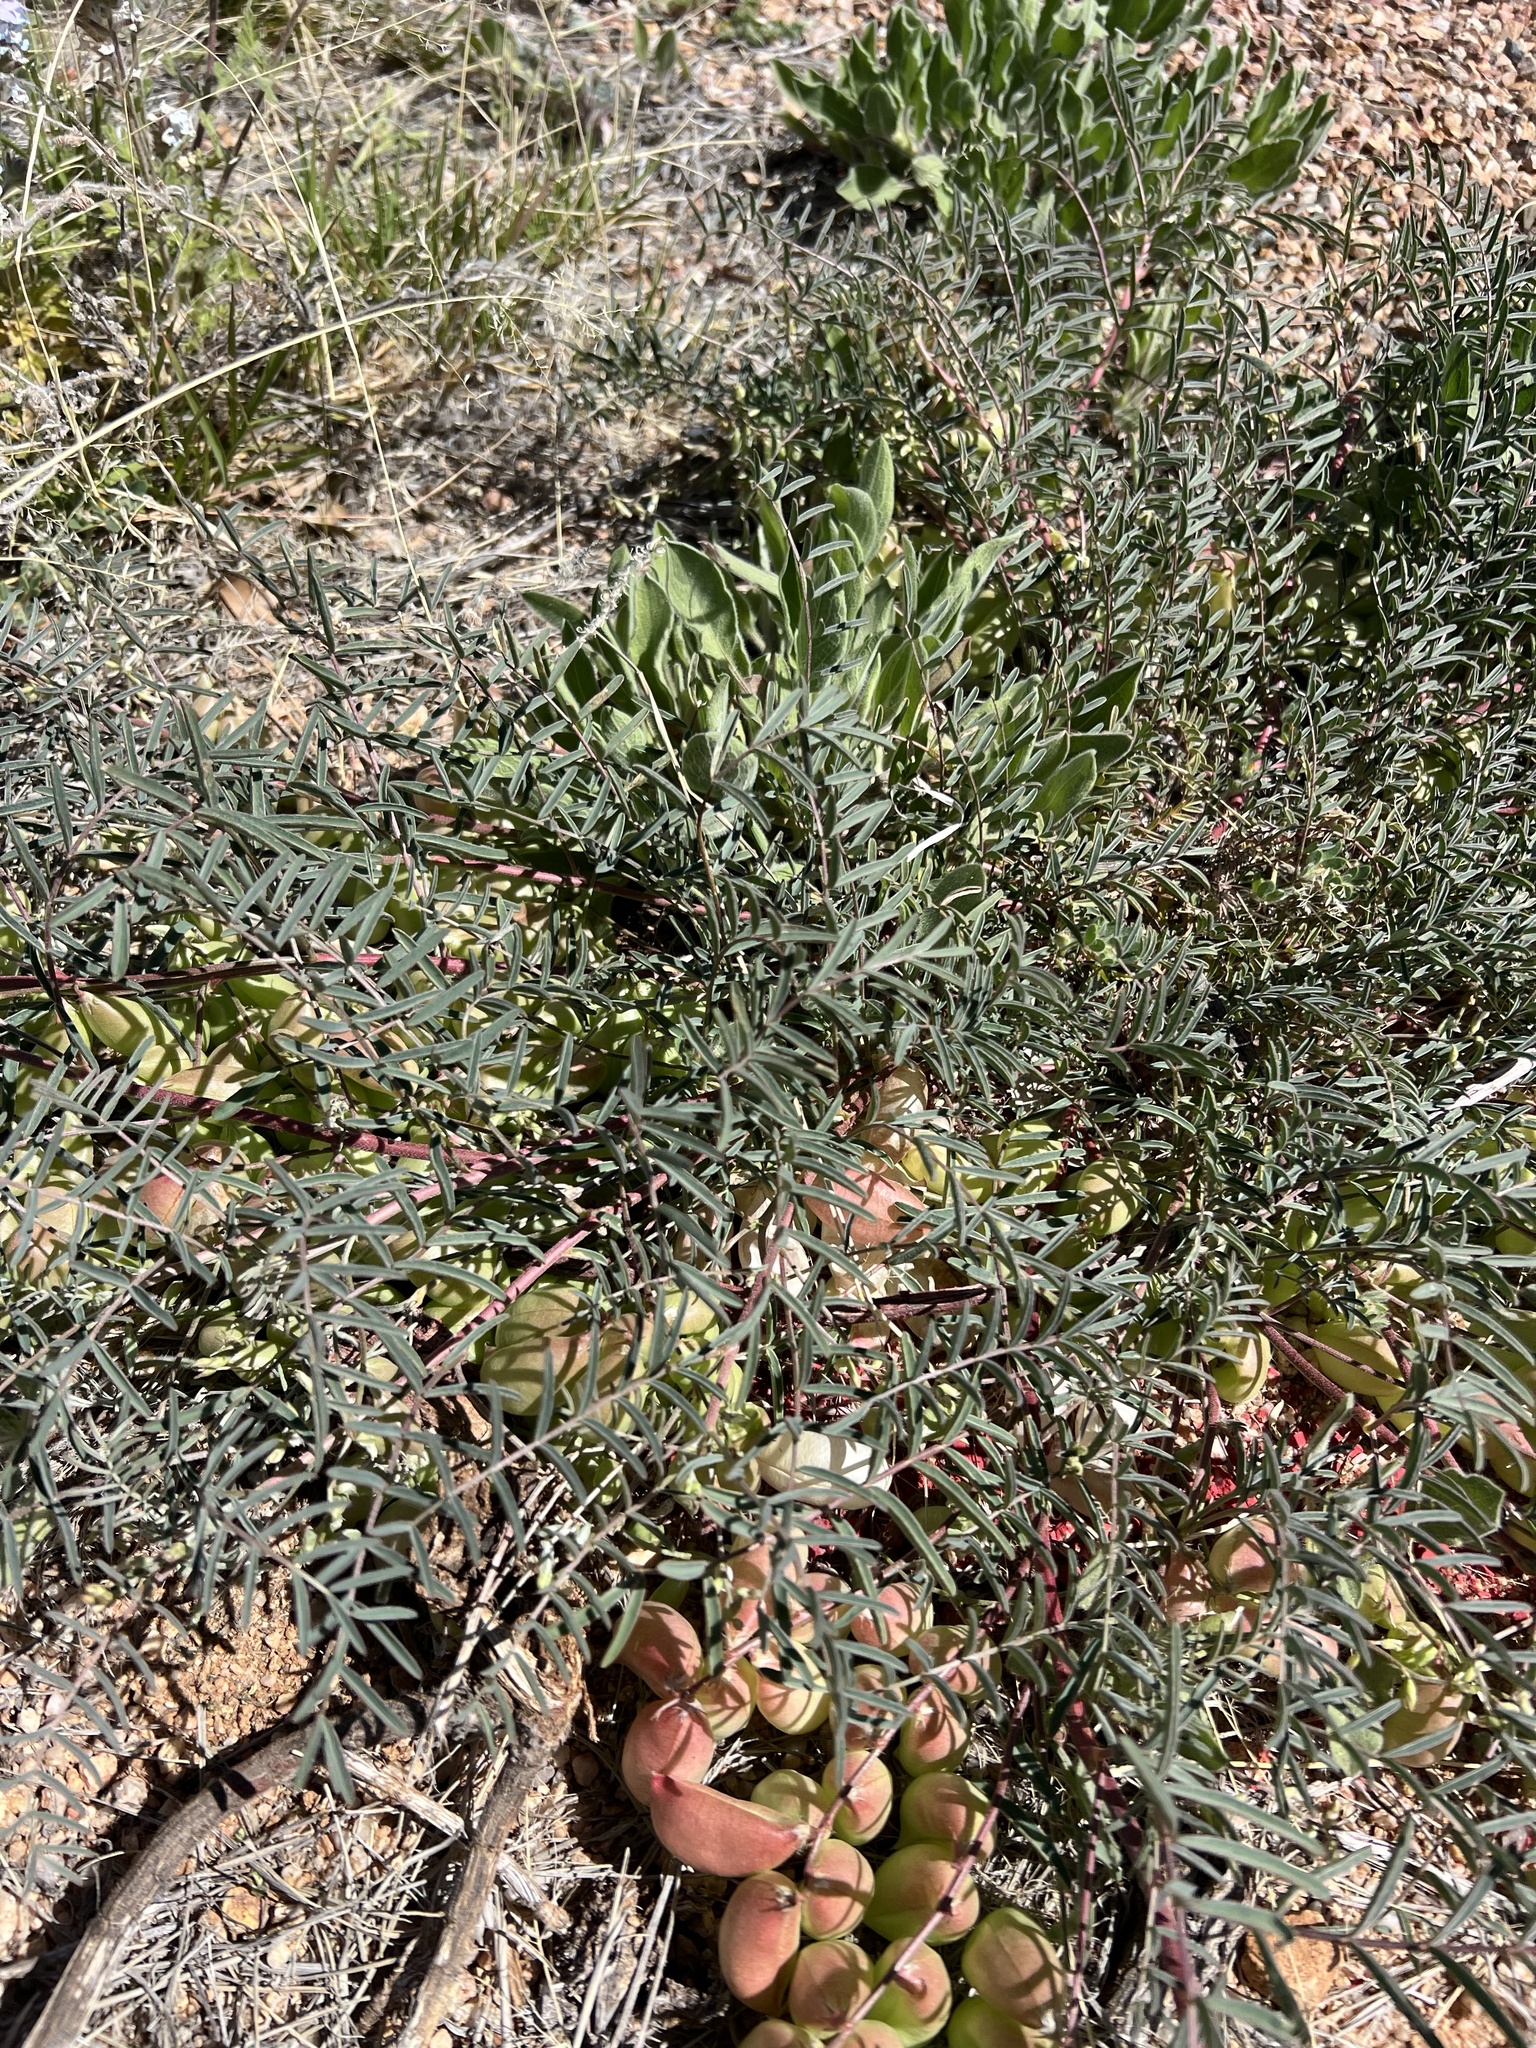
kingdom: Plantae
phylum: Tracheophyta
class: Magnoliopsida
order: Fabales
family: Fabaceae
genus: Astragalus
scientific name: Astragalus allochrous
